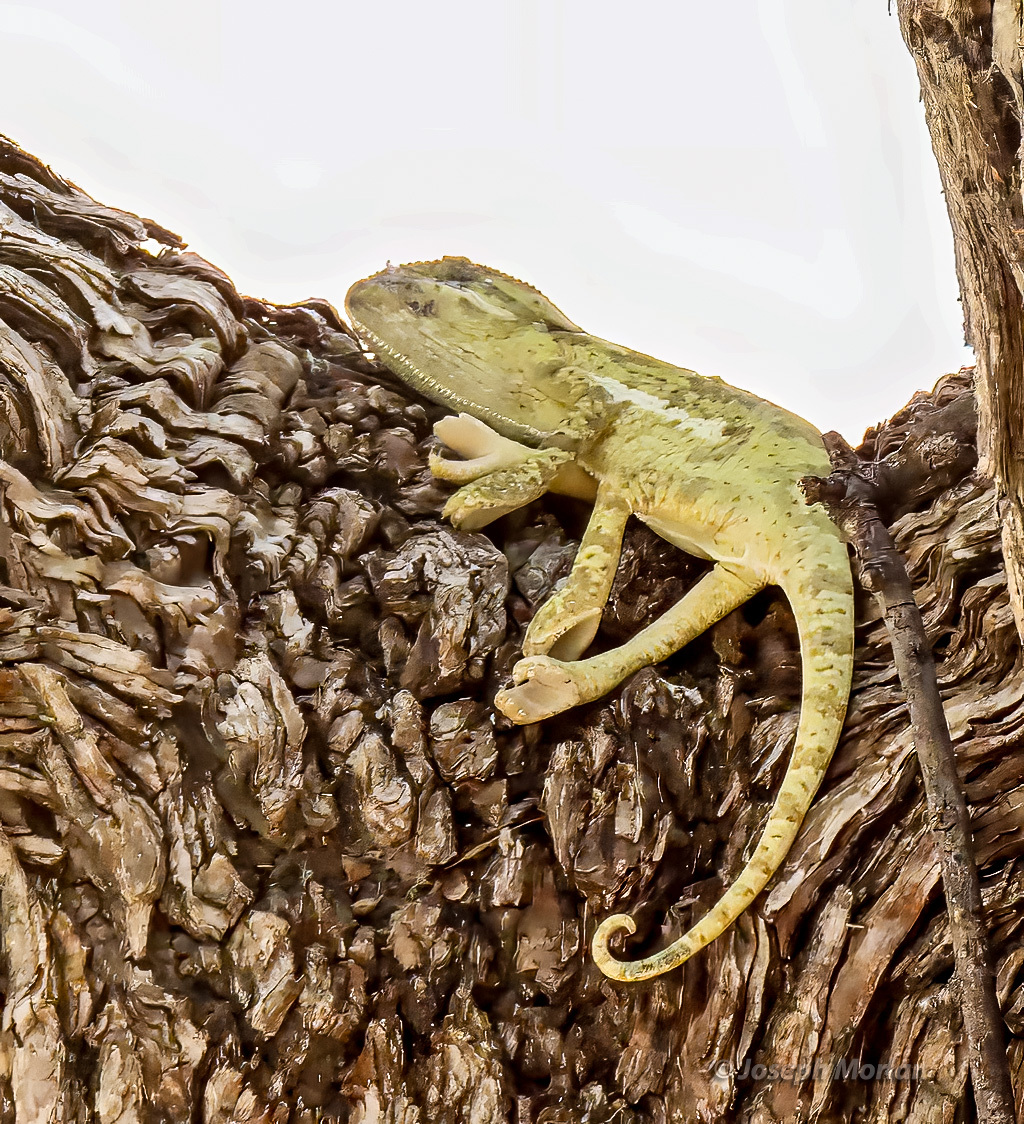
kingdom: Animalia
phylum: Chordata
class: Squamata
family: Chamaeleonidae
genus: Chamaeleo
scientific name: Chamaeleo dilepis
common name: Flapneck chameleon
